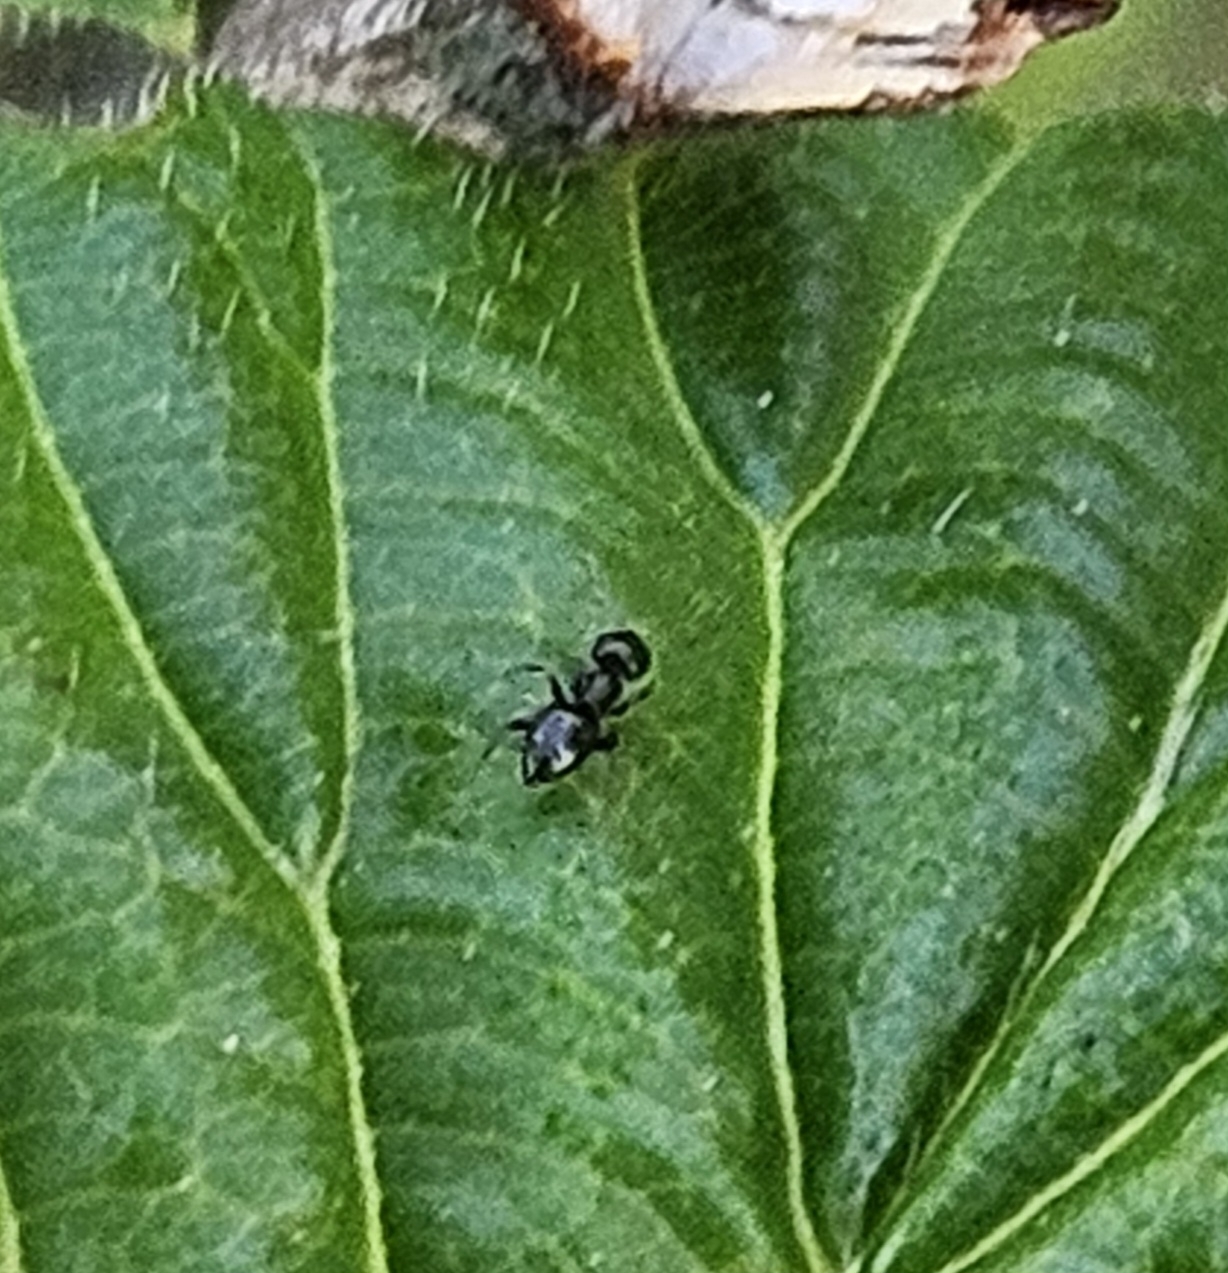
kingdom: Animalia
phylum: Arthropoda
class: Insecta
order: Hymenoptera
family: Formicidae
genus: Brachymyrmex
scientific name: Brachymyrmex patagonicus
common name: Dark rover ant
